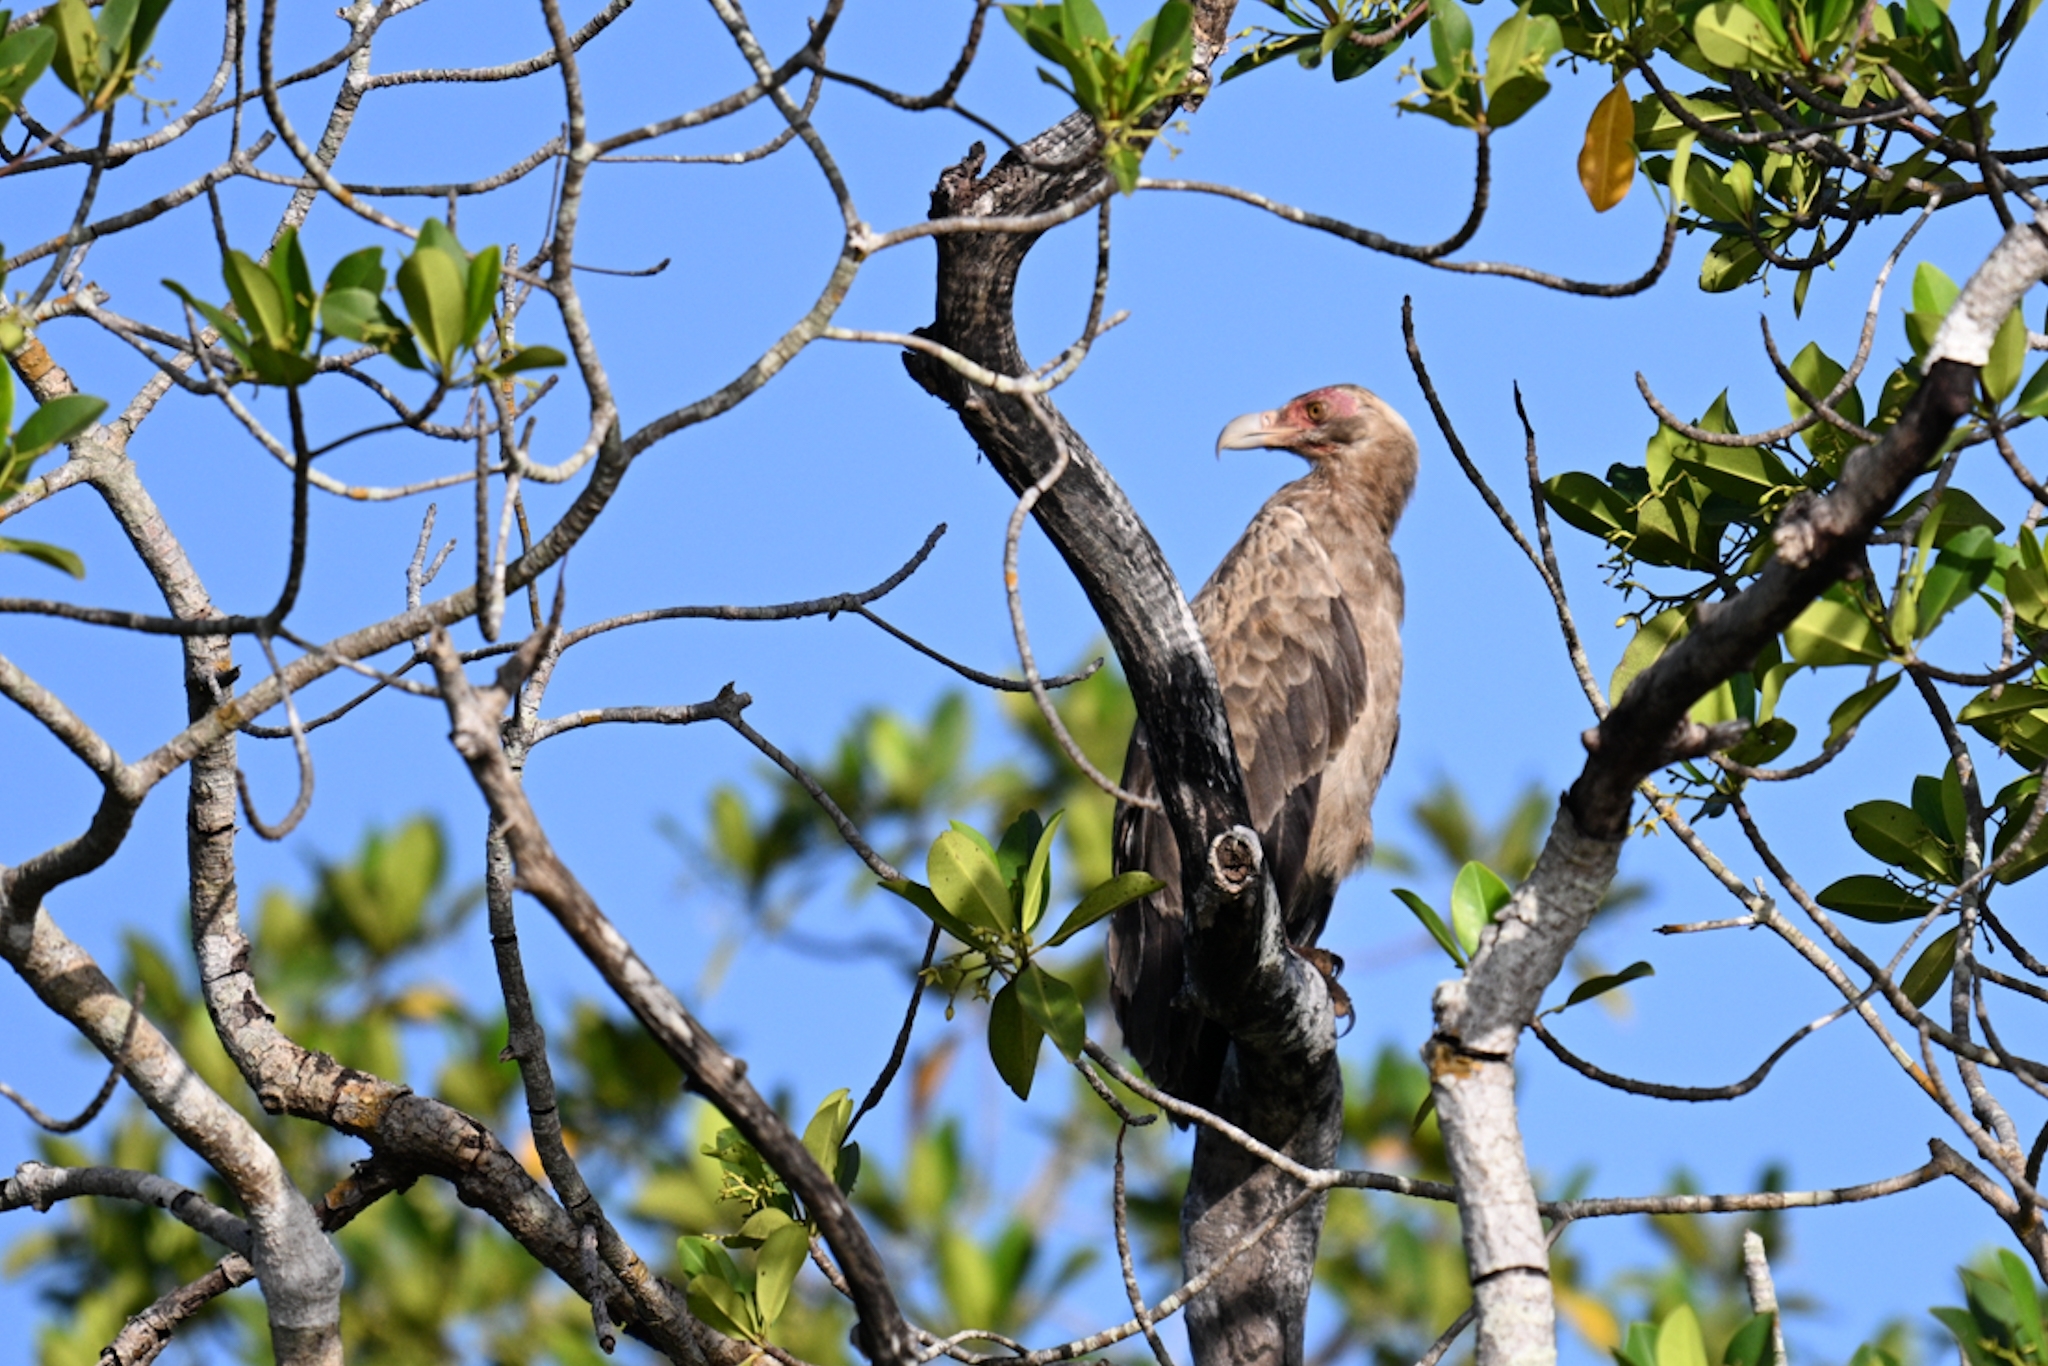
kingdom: Animalia
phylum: Chordata
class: Aves
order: Accipitriformes
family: Accipitridae
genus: Gypohierax
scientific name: Gypohierax angolensis
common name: Palm-nut vulture
